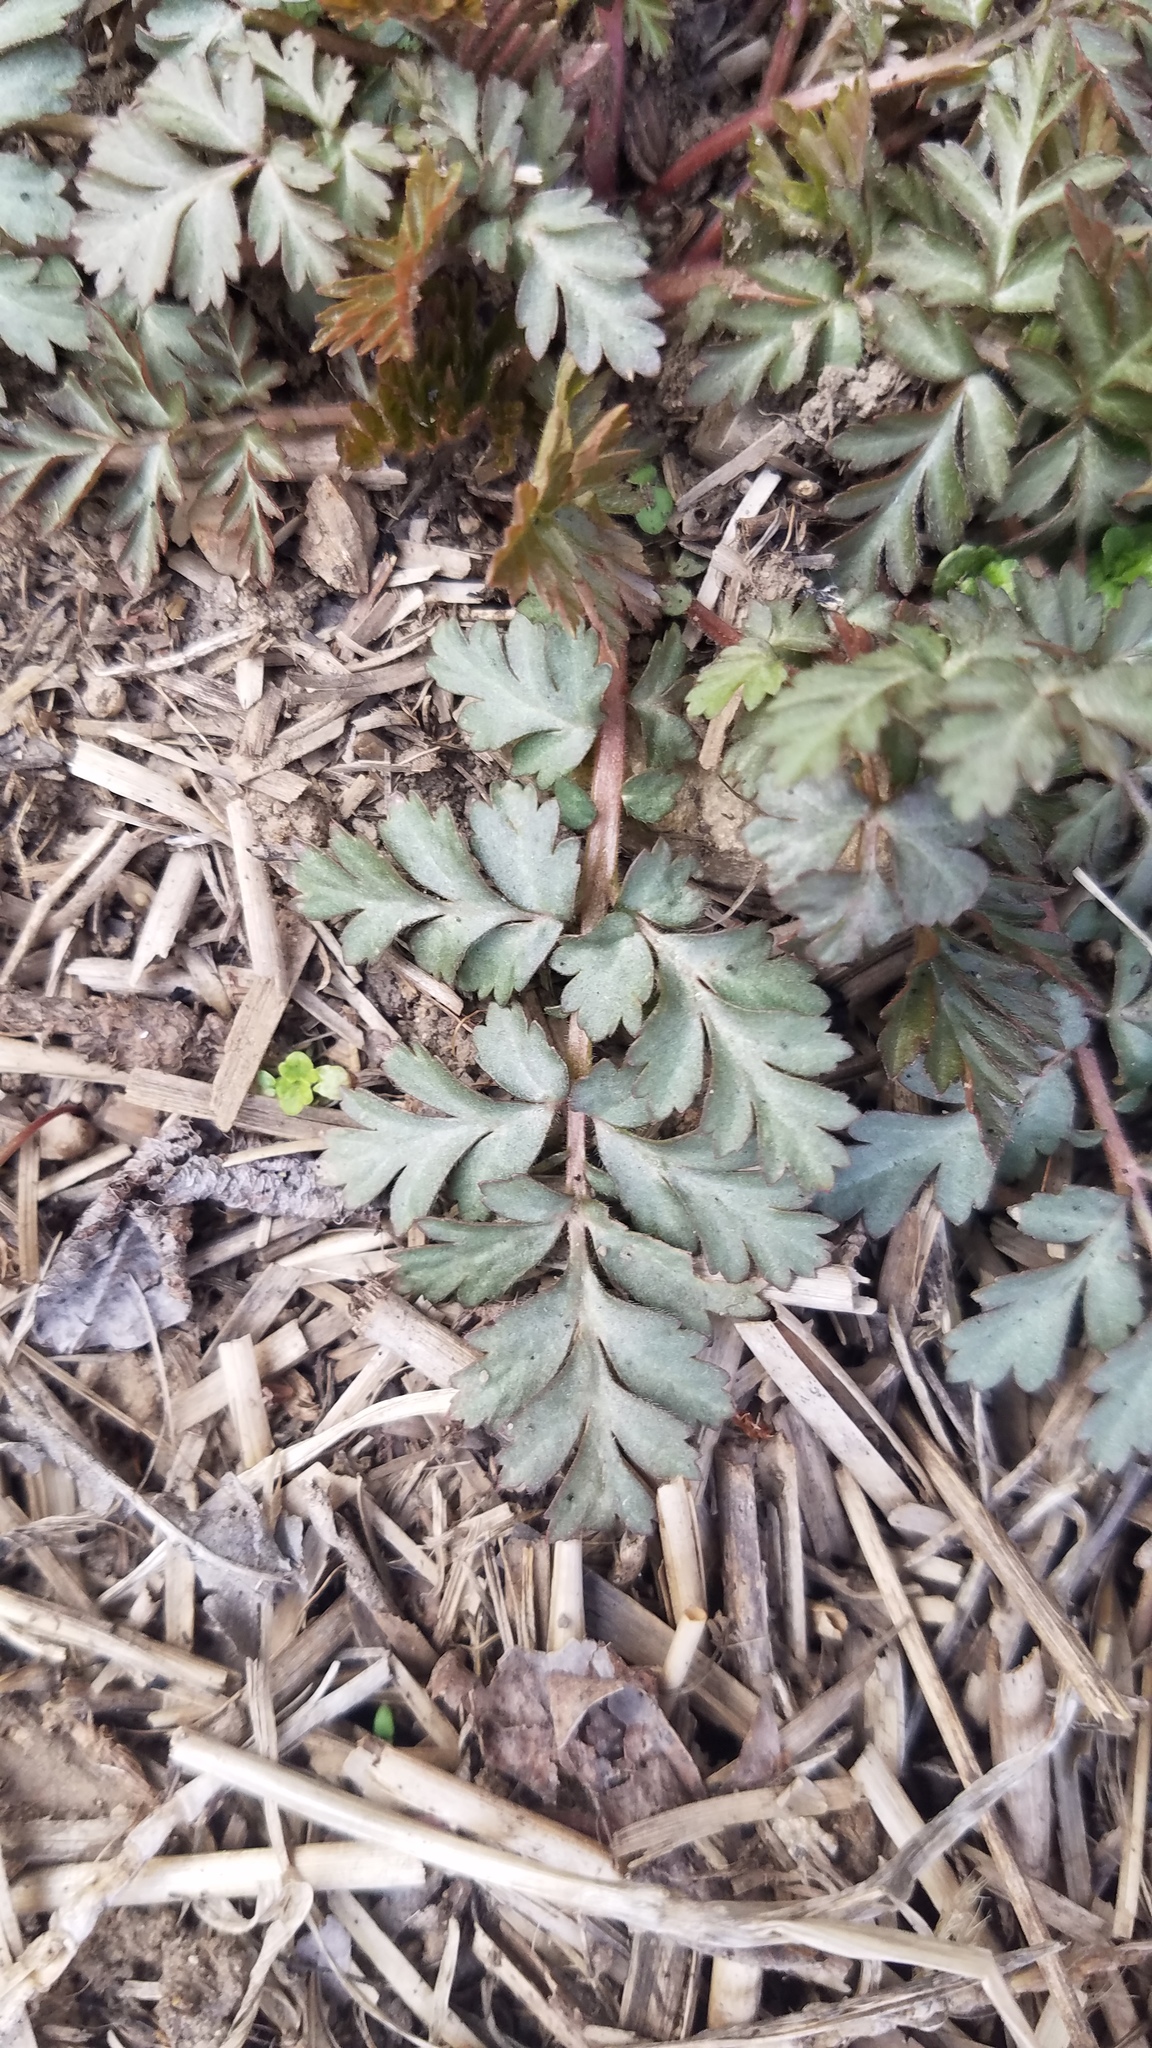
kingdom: Plantae
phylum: Tracheophyta
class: Magnoliopsida
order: Rosales
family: Rosaceae
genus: Geum
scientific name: Geum canadense
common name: White avens
